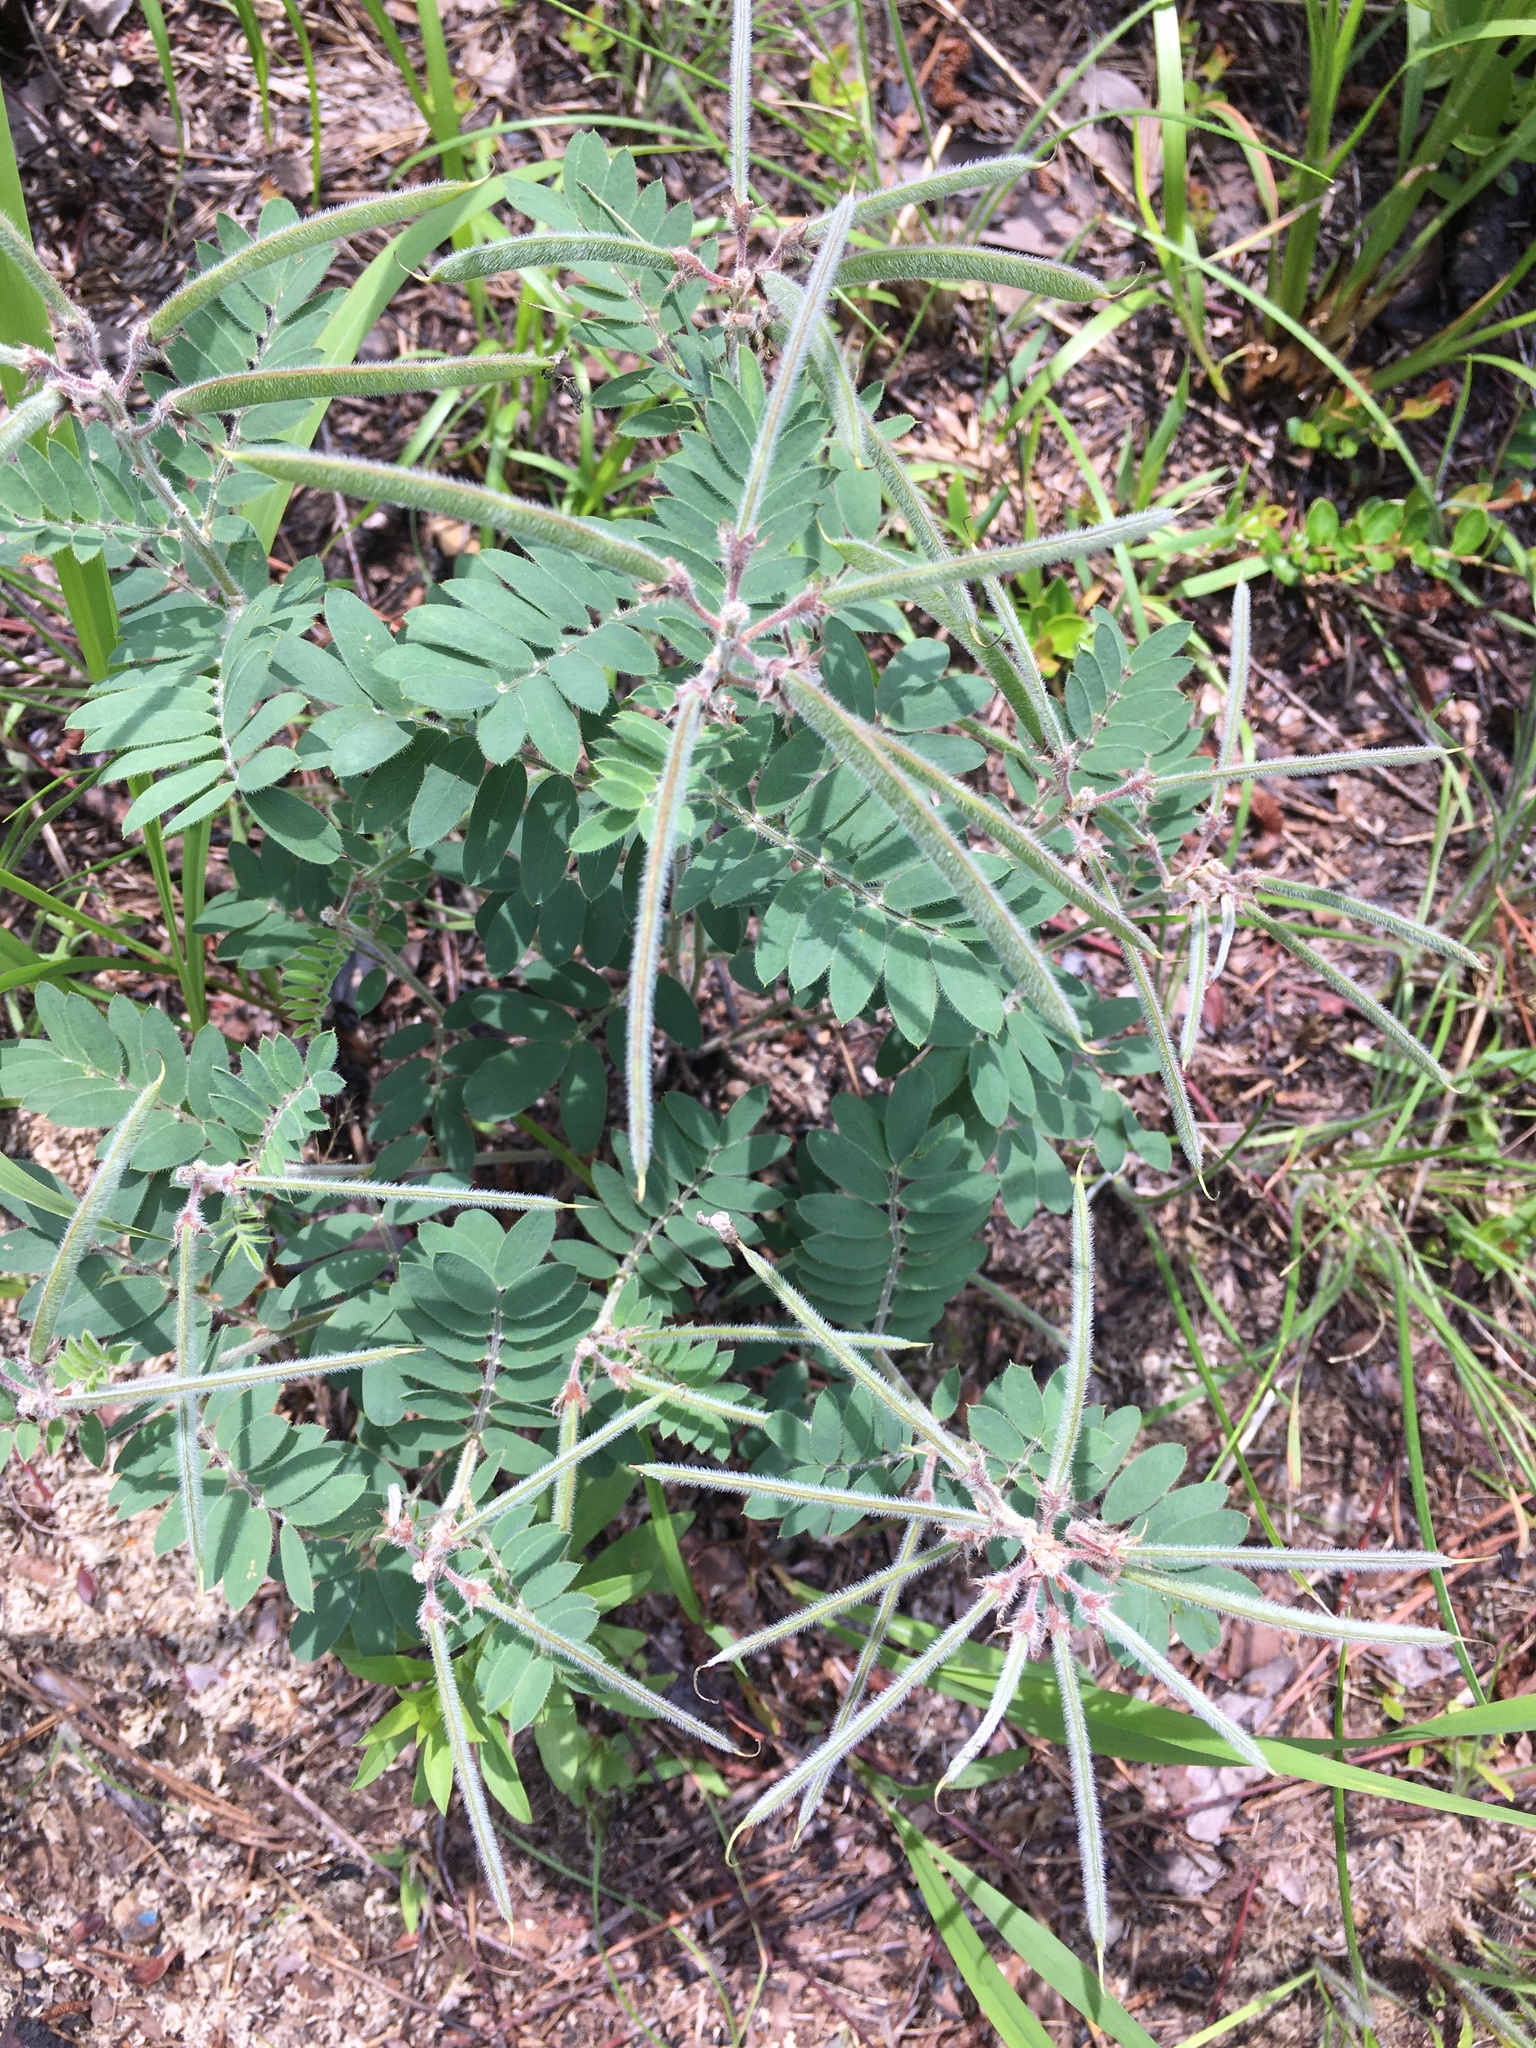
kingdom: Plantae
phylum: Tracheophyta
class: Magnoliopsida
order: Fabales
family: Fabaceae
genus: Tephrosia
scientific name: Tephrosia virginiana
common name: Rabbit-pea
